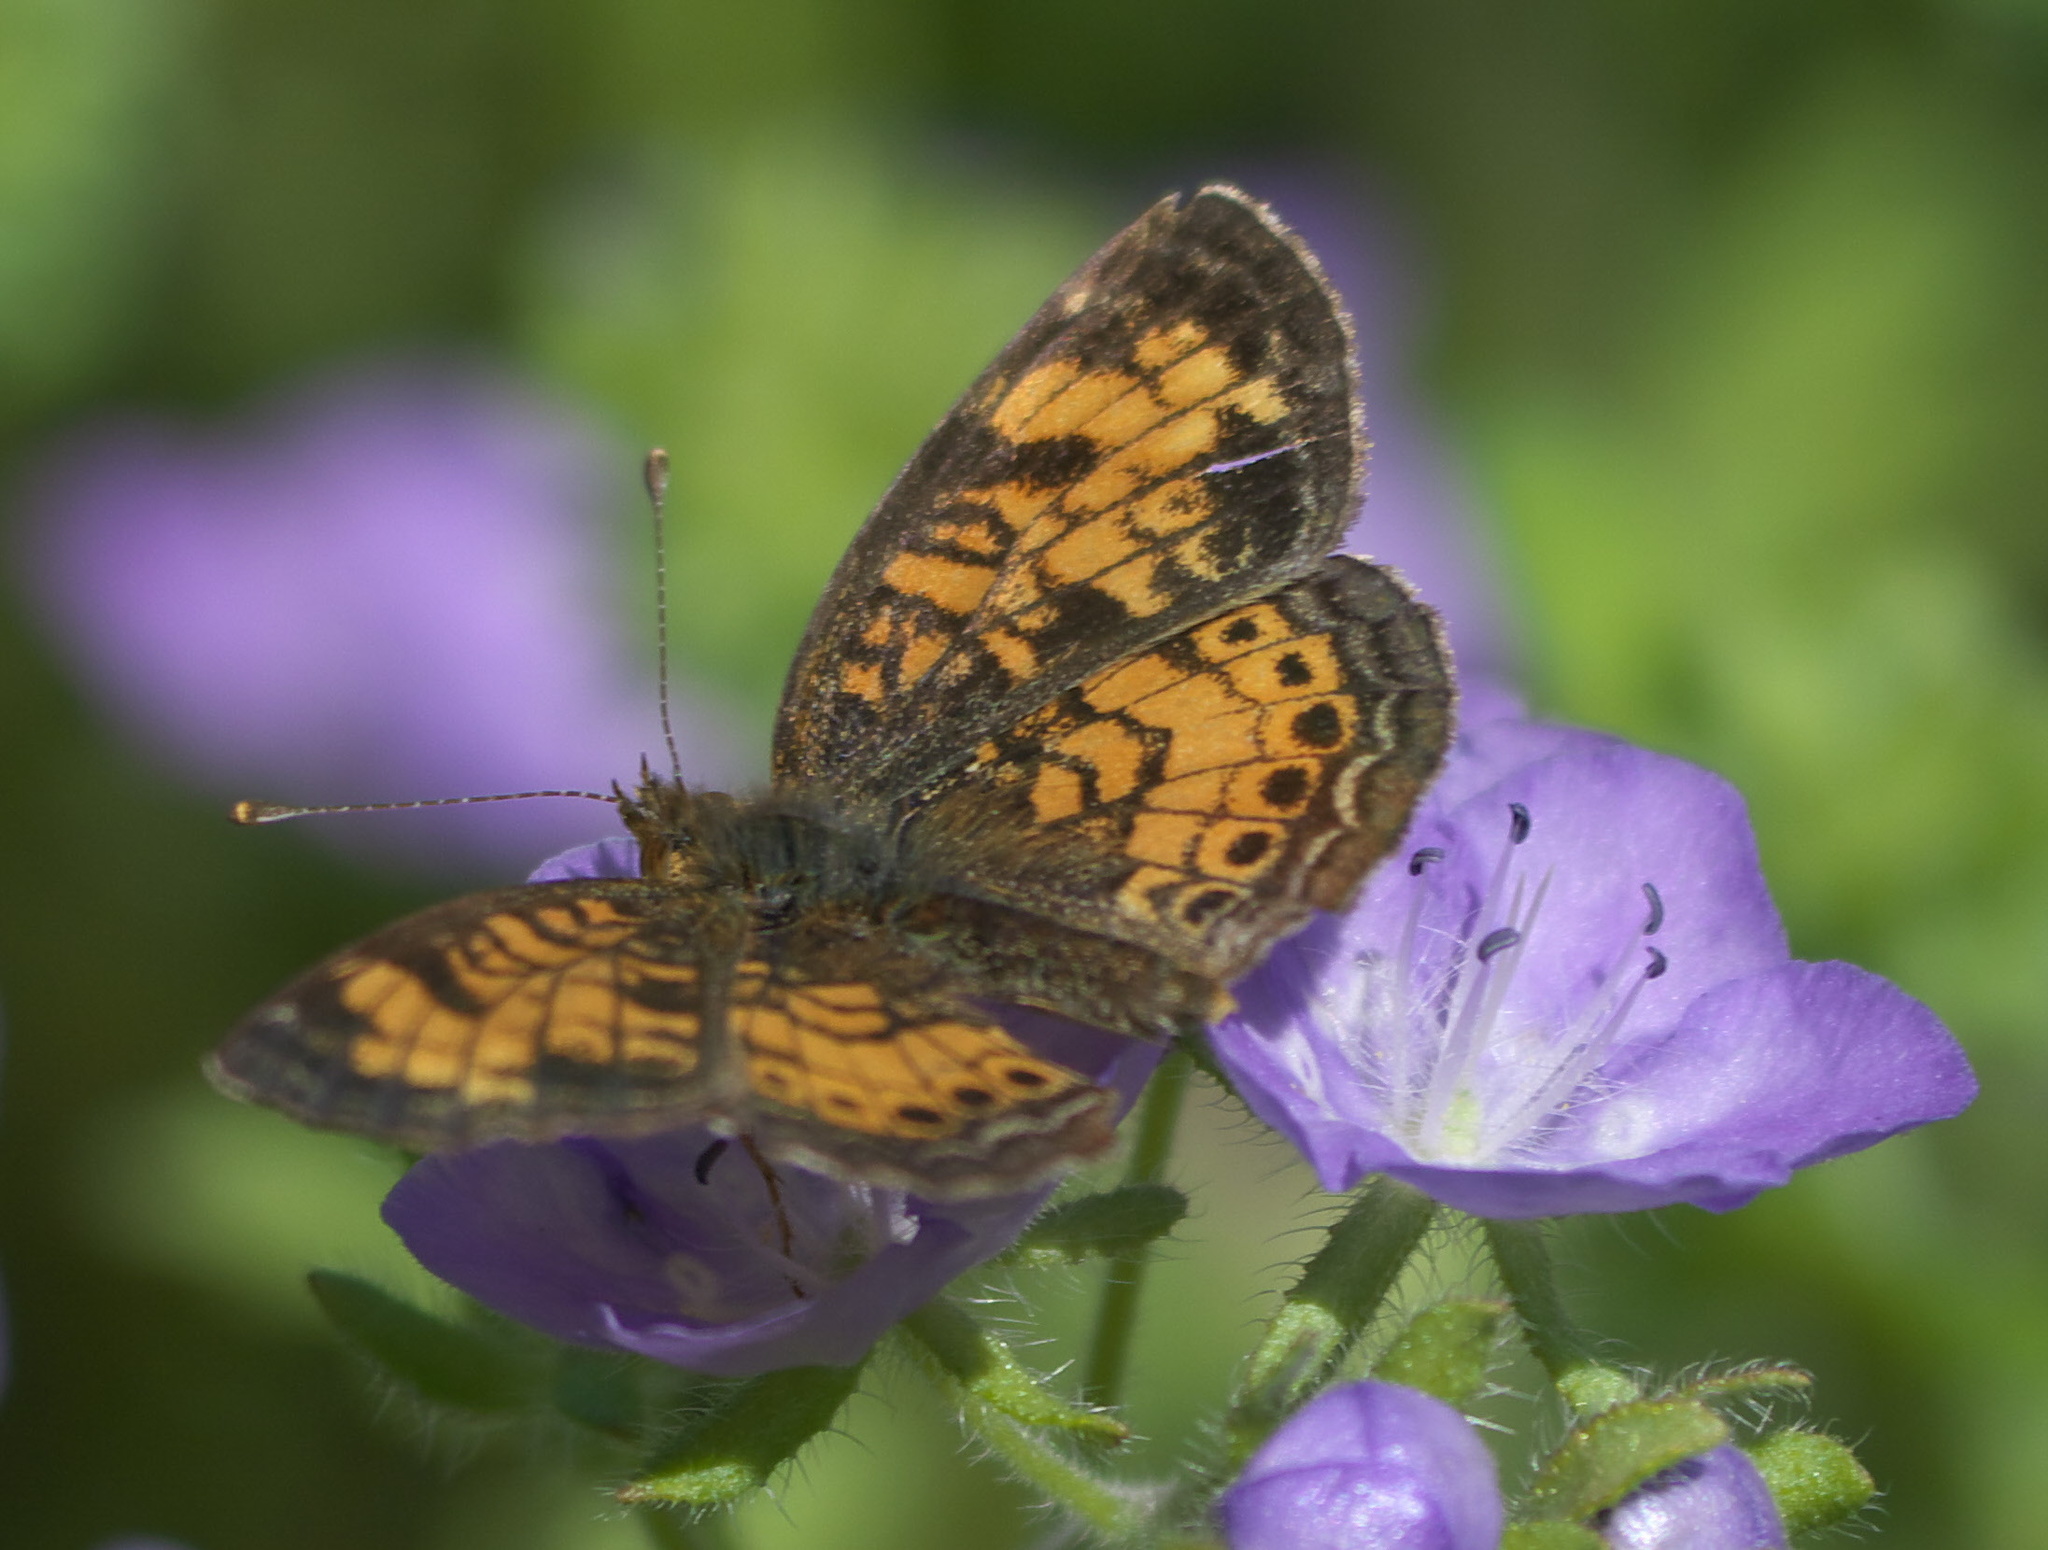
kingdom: Animalia
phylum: Arthropoda
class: Insecta
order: Lepidoptera
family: Nymphalidae
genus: Phyciodes
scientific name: Phyciodes tharos
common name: Pearl crescent
